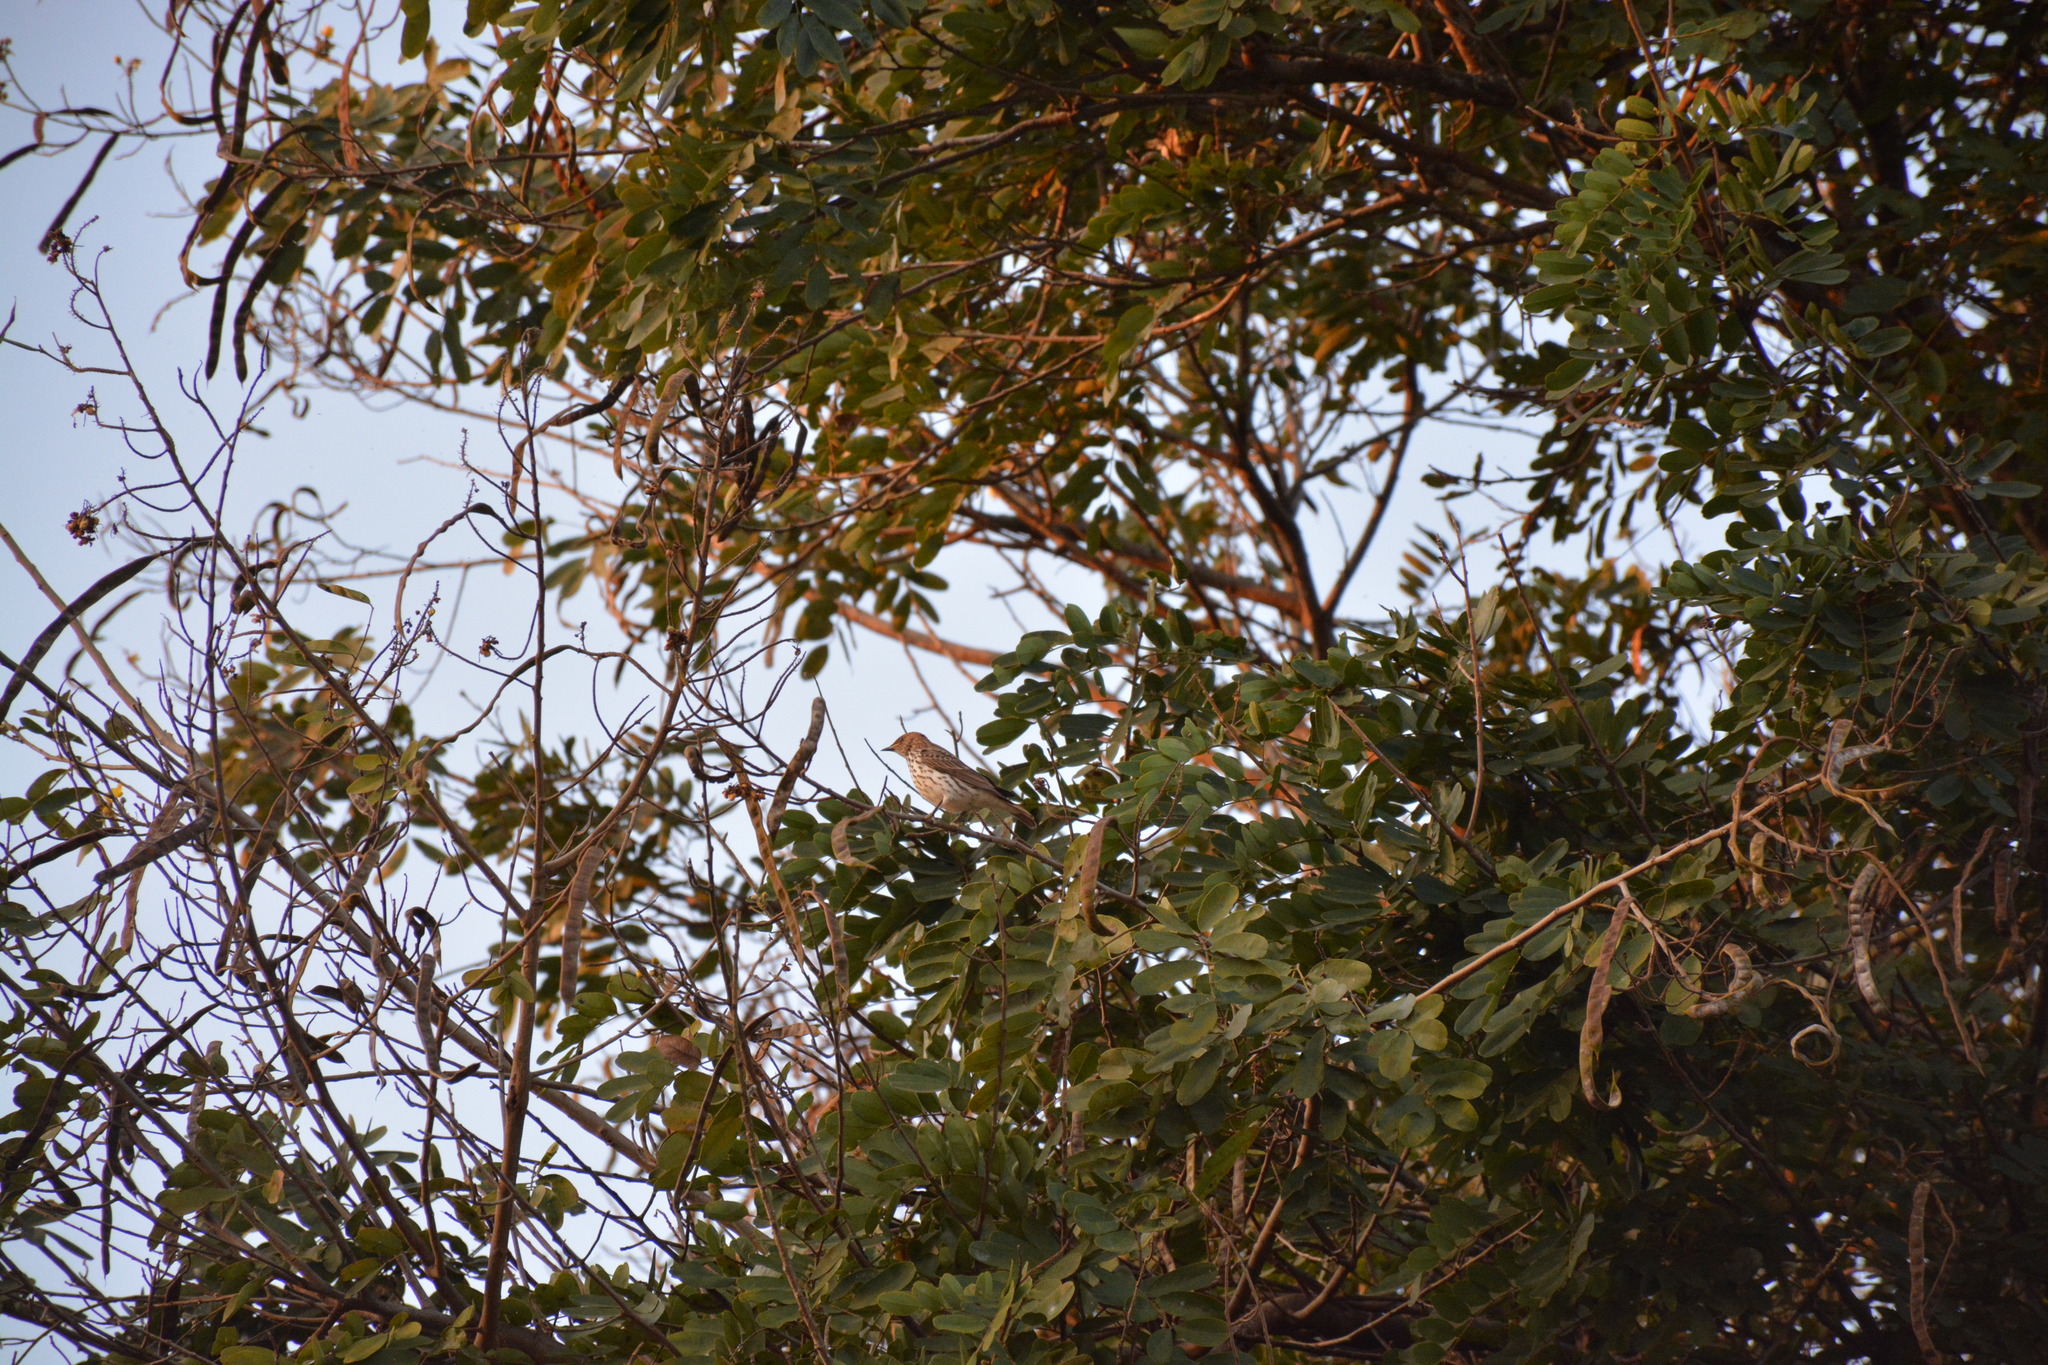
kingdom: Animalia
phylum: Chordata
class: Aves
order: Passeriformes
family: Sturnidae
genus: Cinnyricinclus
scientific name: Cinnyricinclus leucogaster
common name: Violet-backed starling
